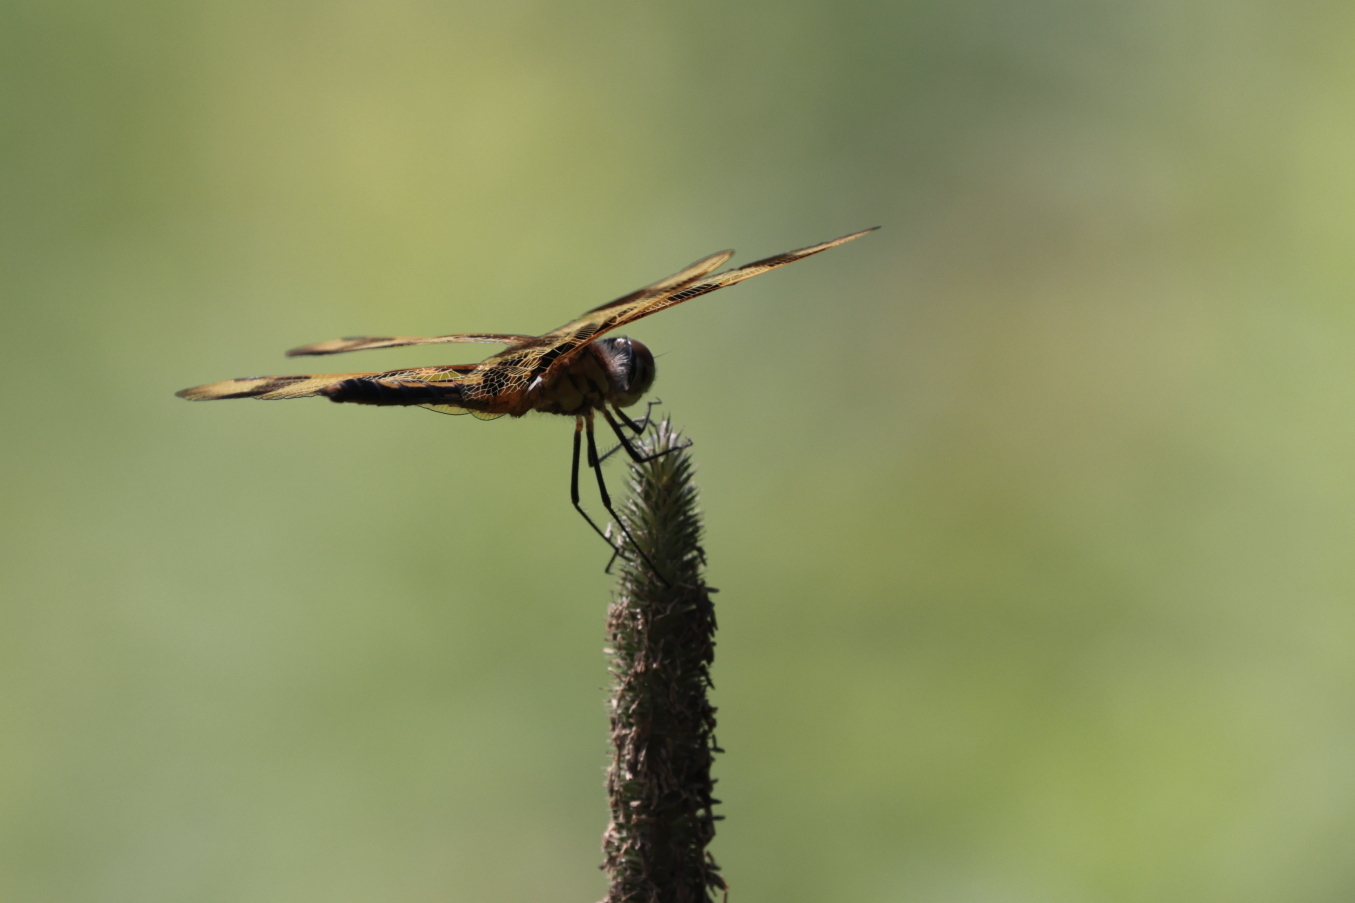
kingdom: Animalia
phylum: Arthropoda
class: Insecta
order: Odonata
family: Libellulidae
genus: Celithemis
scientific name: Celithemis eponina
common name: Halloween pennant
